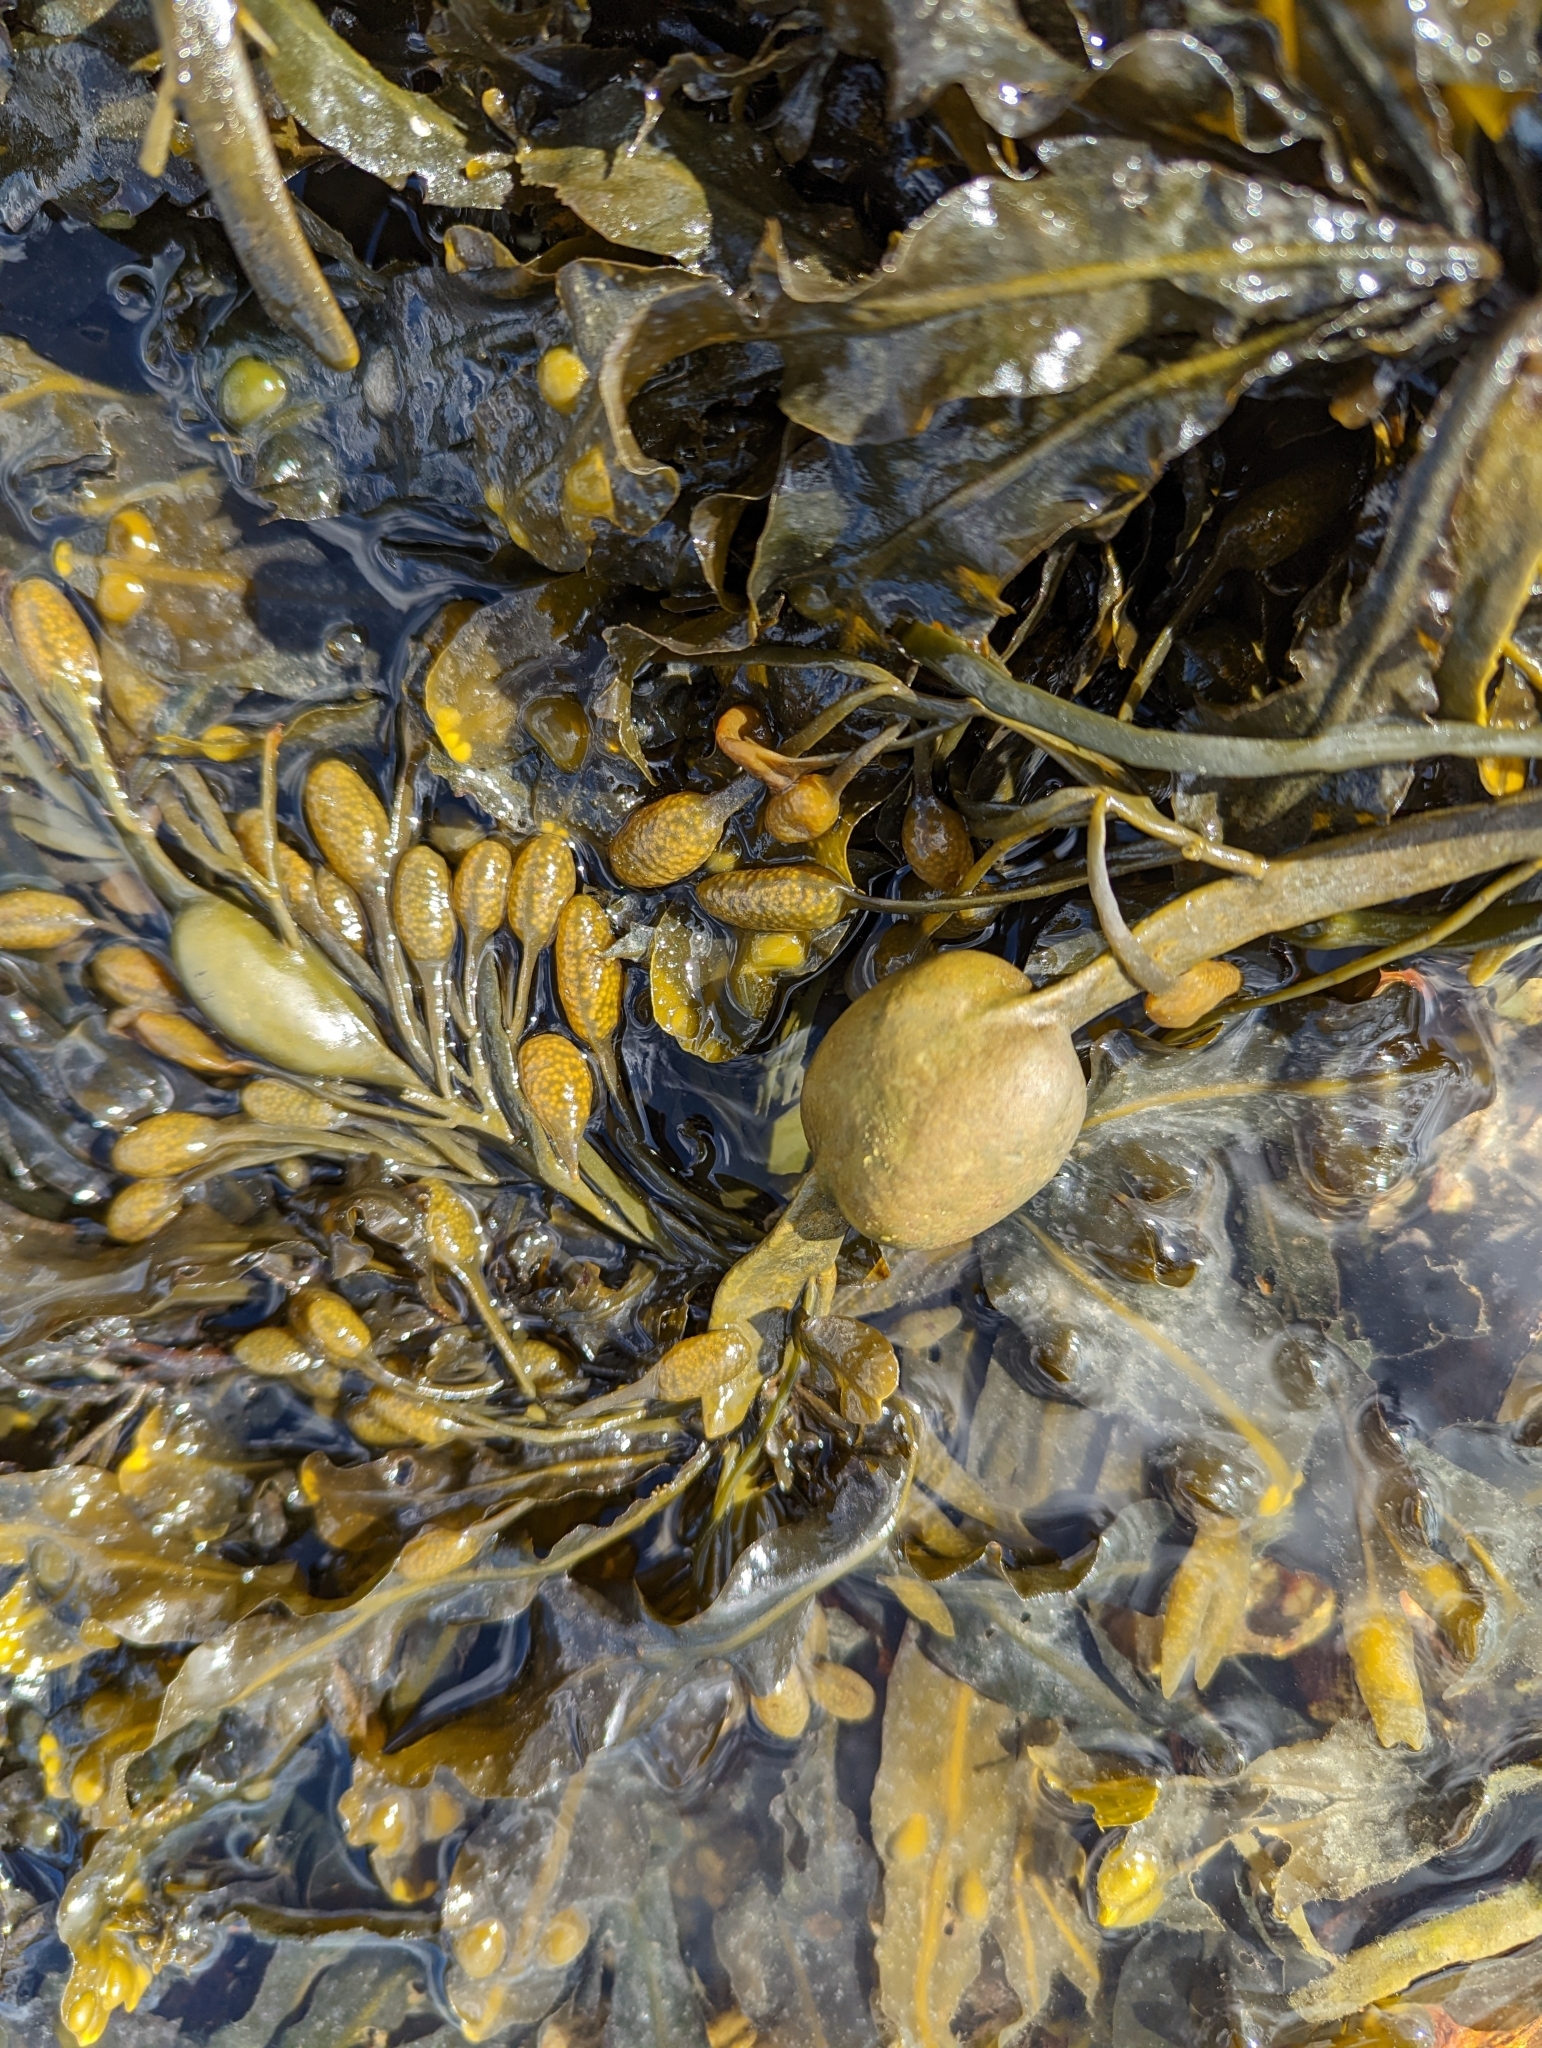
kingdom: Chromista
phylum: Ochrophyta
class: Phaeophyceae
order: Fucales
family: Fucaceae
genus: Ascophyllum
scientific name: Ascophyllum nodosum
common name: Knotted wrack
